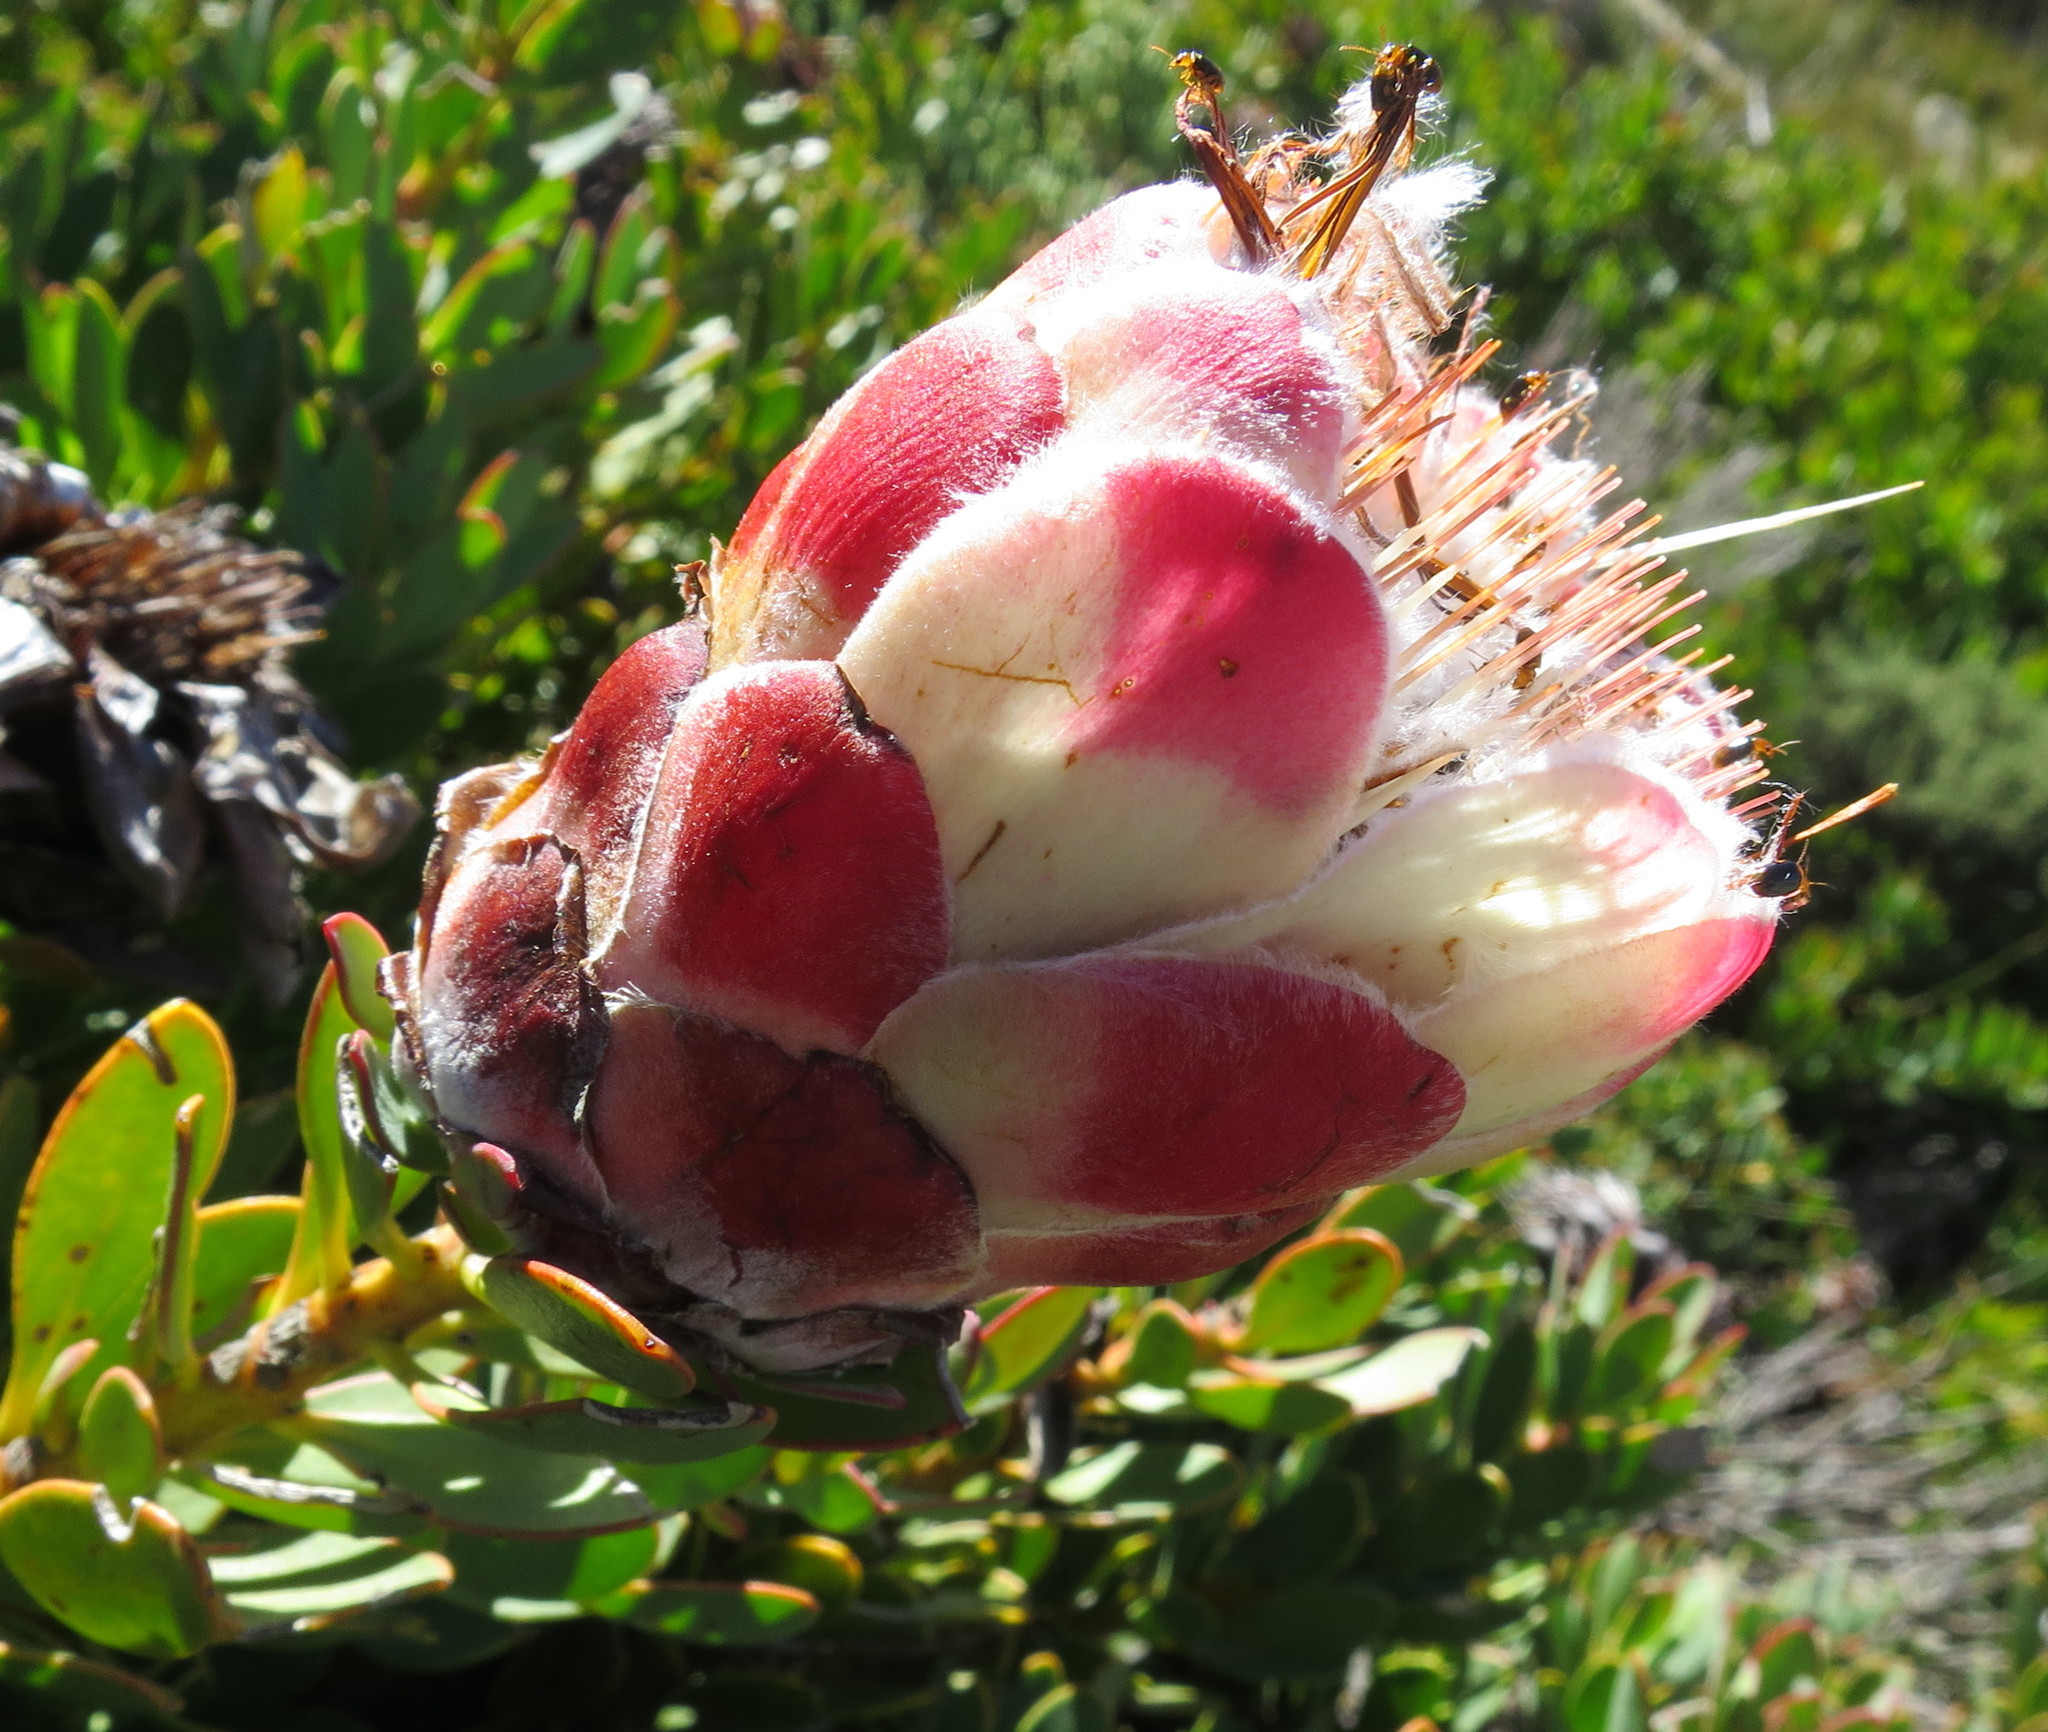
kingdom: Plantae
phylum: Tracheophyta
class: Magnoliopsida
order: Proteales
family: Proteaceae
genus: Protea
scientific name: Protea venusta
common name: Cascade sugarbush
